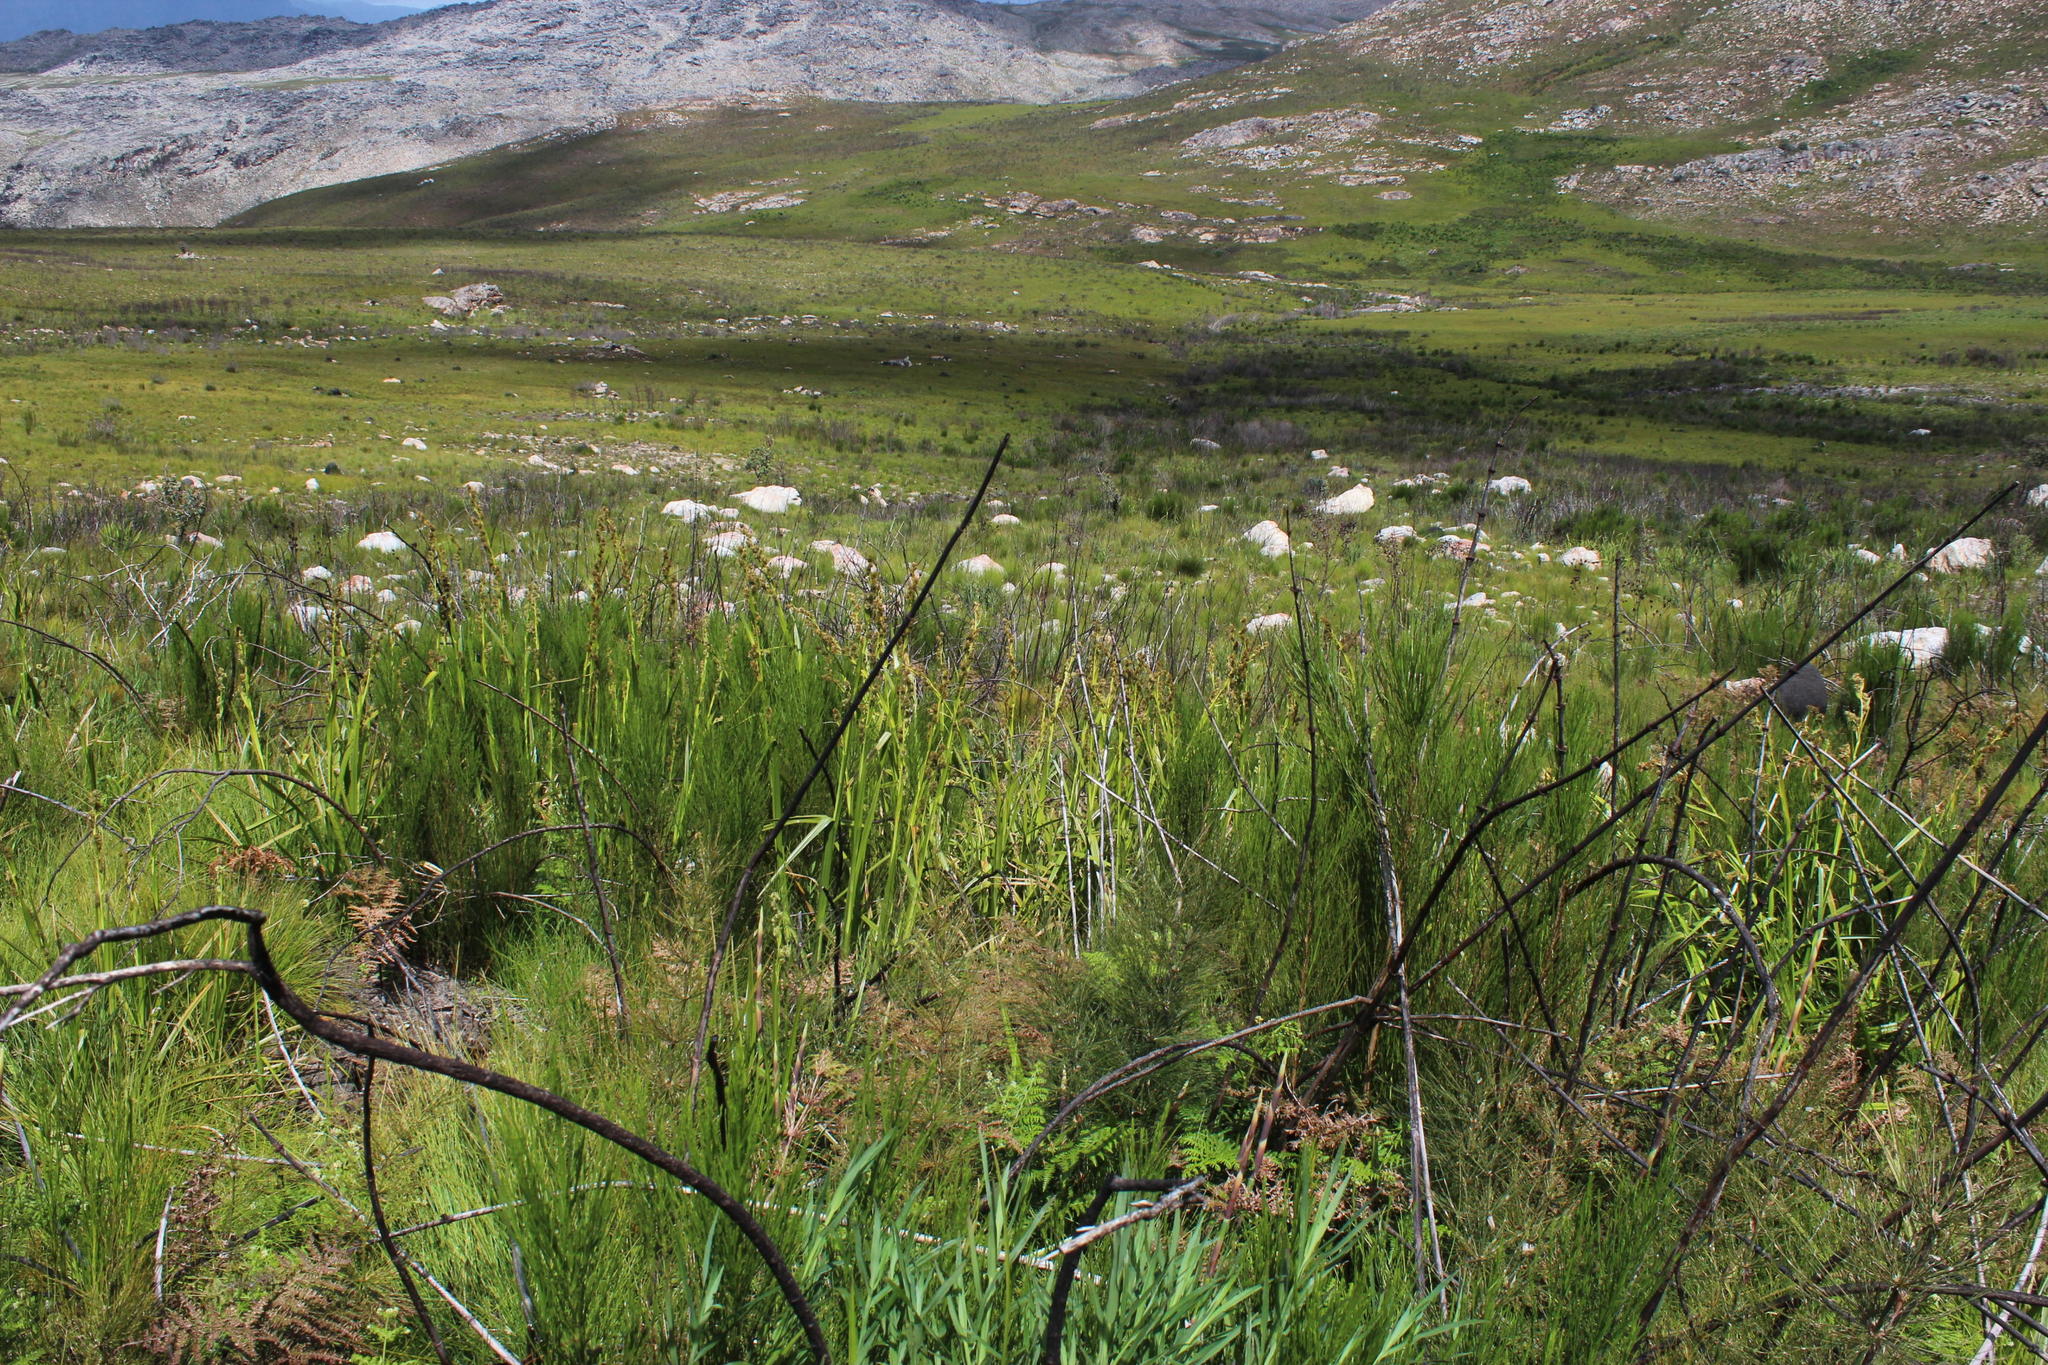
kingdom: Plantae
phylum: Tracheophyta
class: Liliopsida
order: Poales
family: Cyperaceae
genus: Carpha
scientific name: Carpha glomerata
